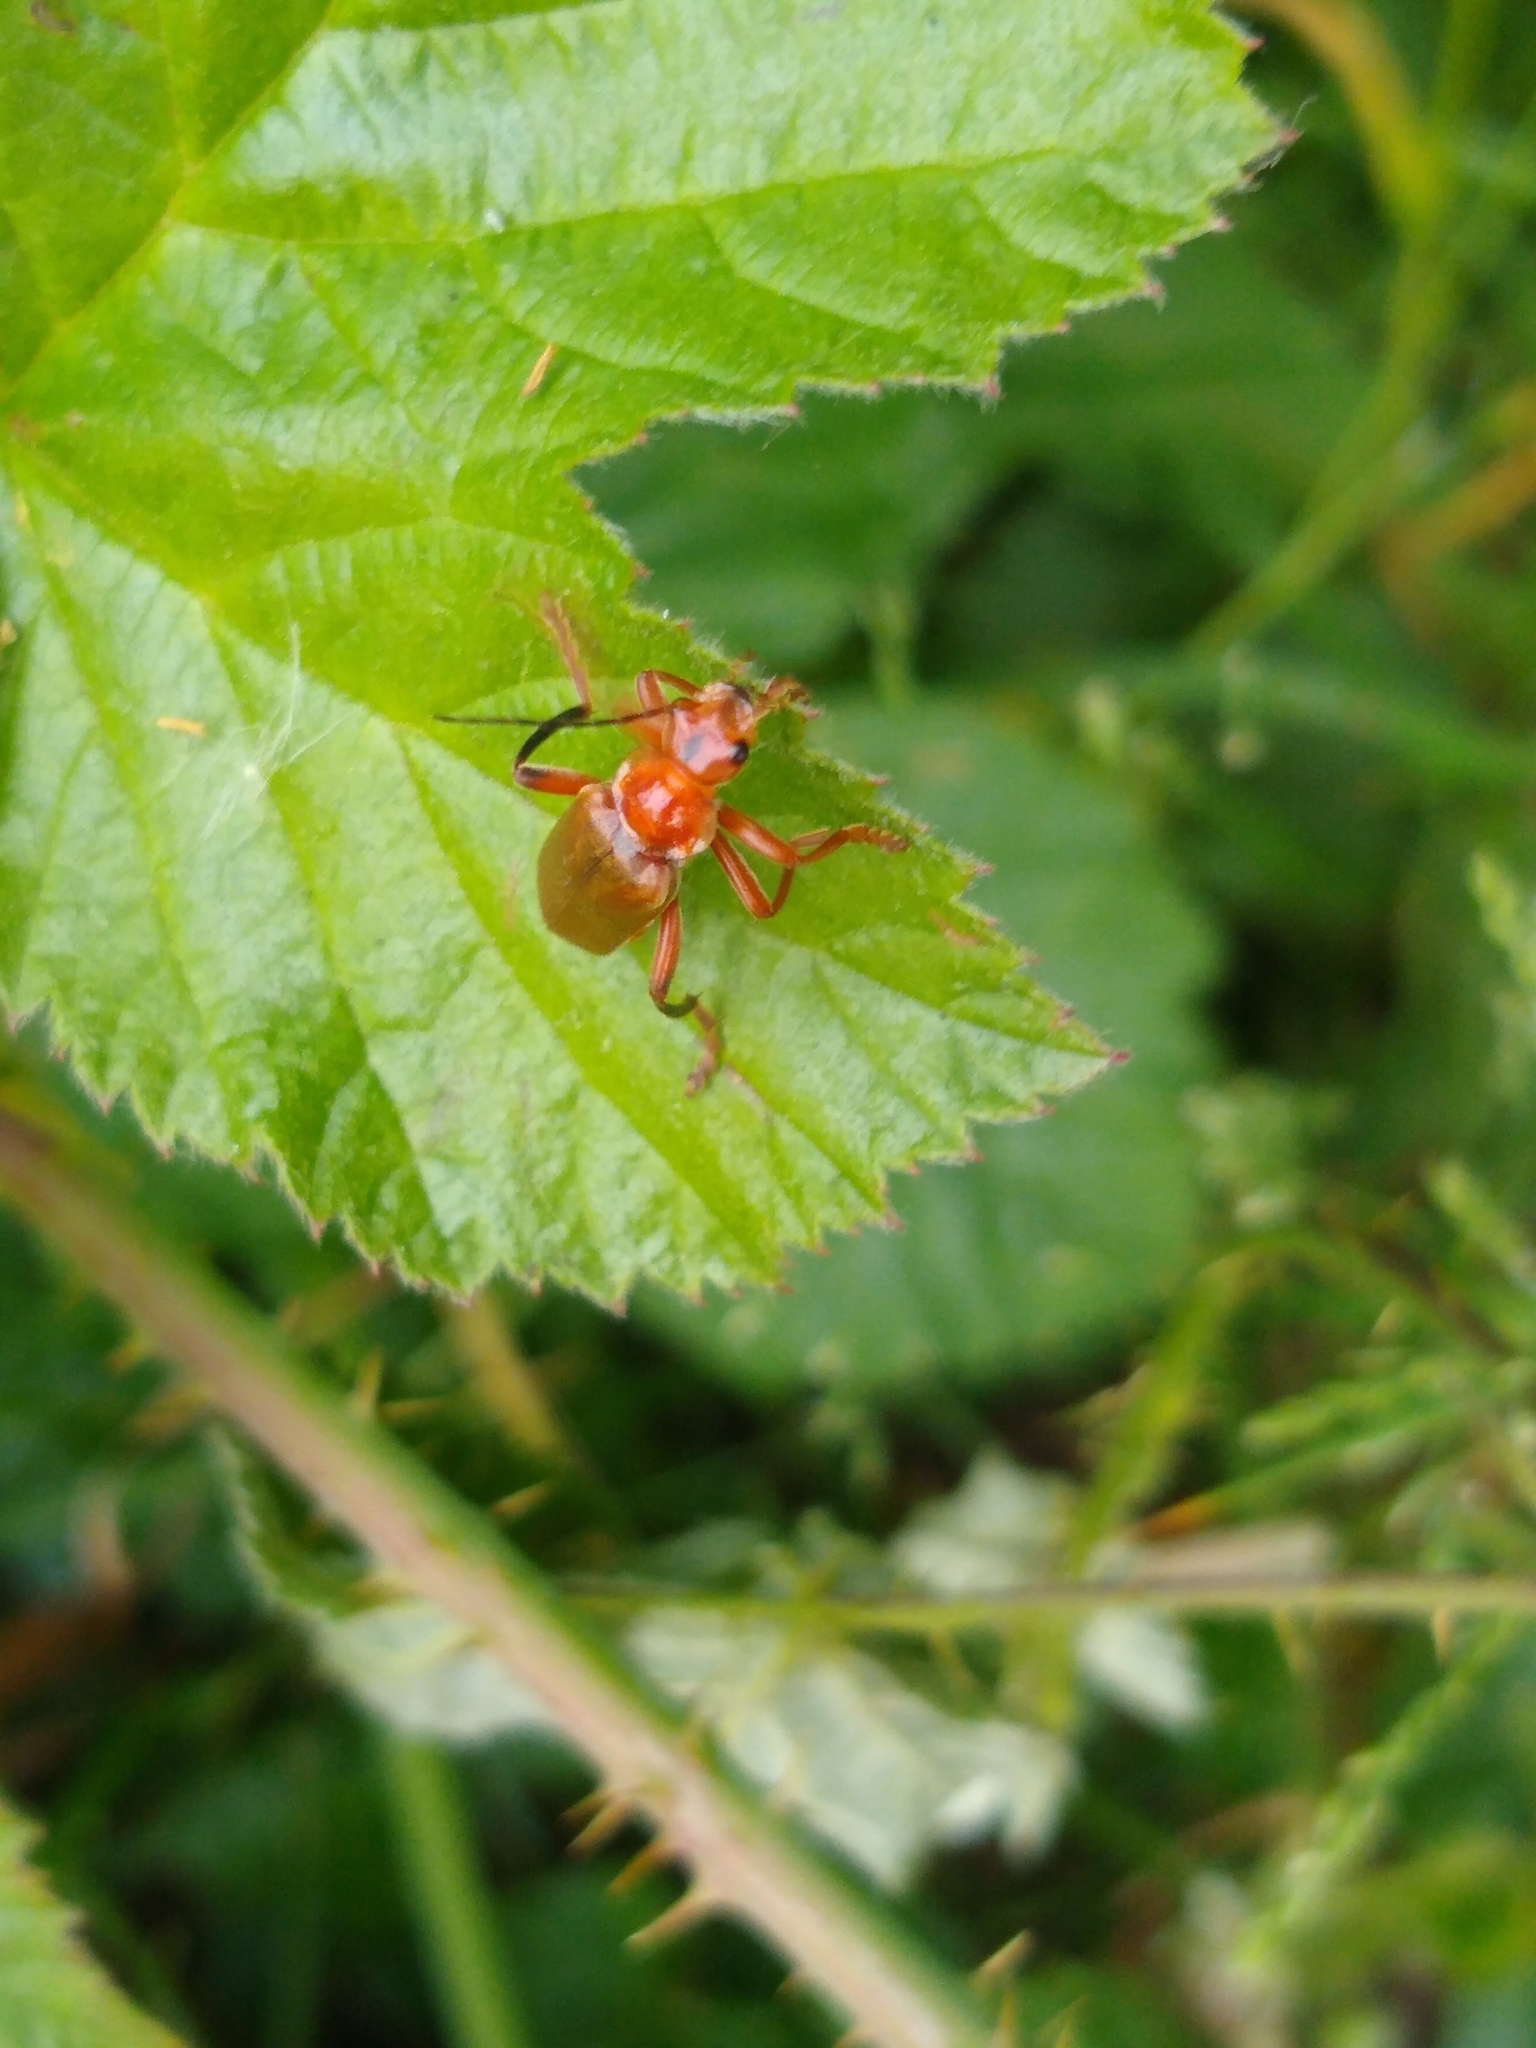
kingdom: Animalia
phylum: Arthropoda
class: Insecta
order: Coleoptera
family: Cantharidae
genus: Cantharis
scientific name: Cantharis livida
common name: Livid soldier beetle
